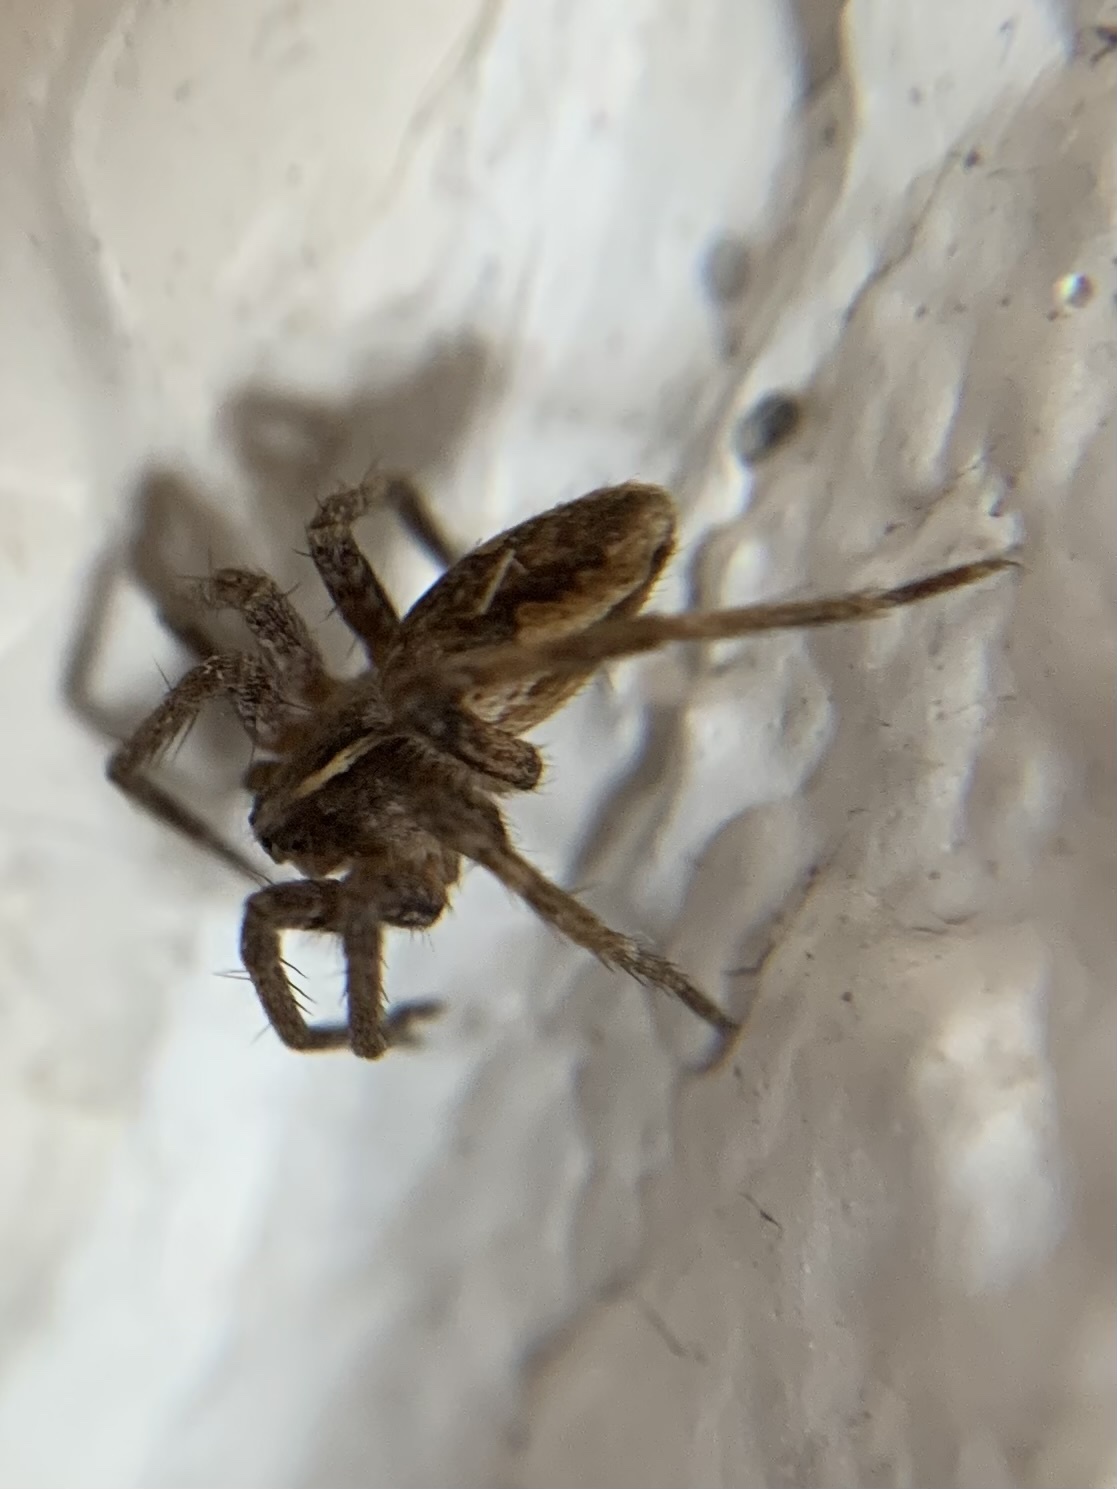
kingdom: Animalia
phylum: Arthropoda
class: Arachnida
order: Araneae
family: Pisauridae
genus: Pisaura
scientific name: Pisaura mirabilis
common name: Tent spider
